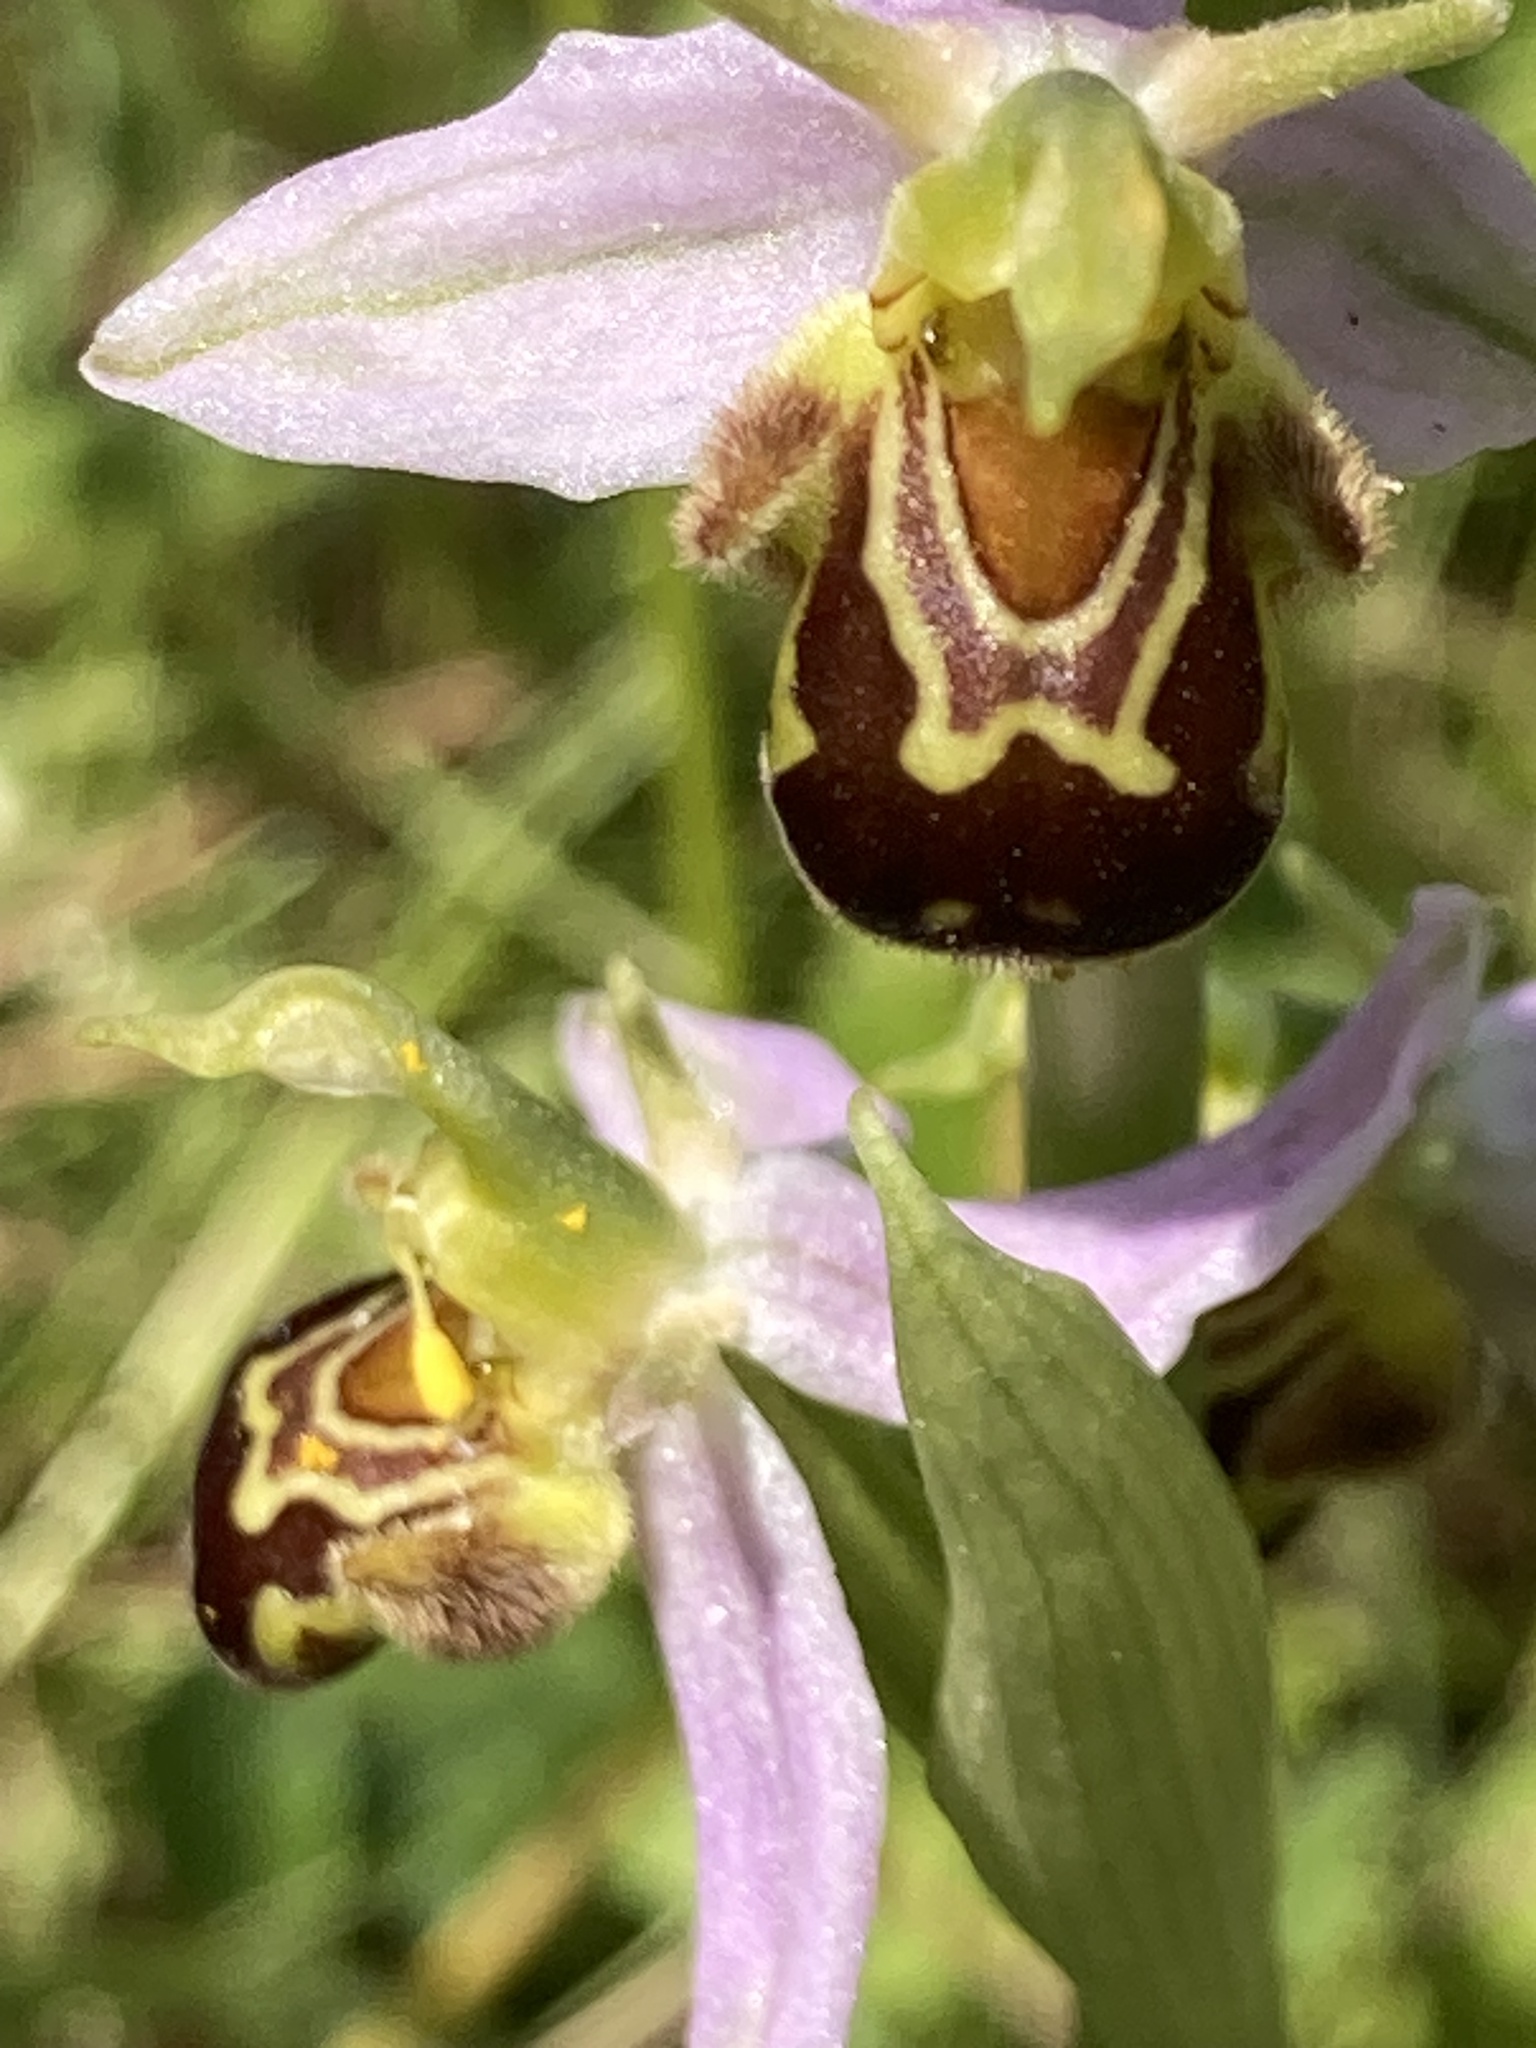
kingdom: Plantae
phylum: Tracheophyta
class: Liliopsida
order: Asparagales
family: Orchidaceae
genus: Ophrys
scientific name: Ophrys apifera
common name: Bee orchid
